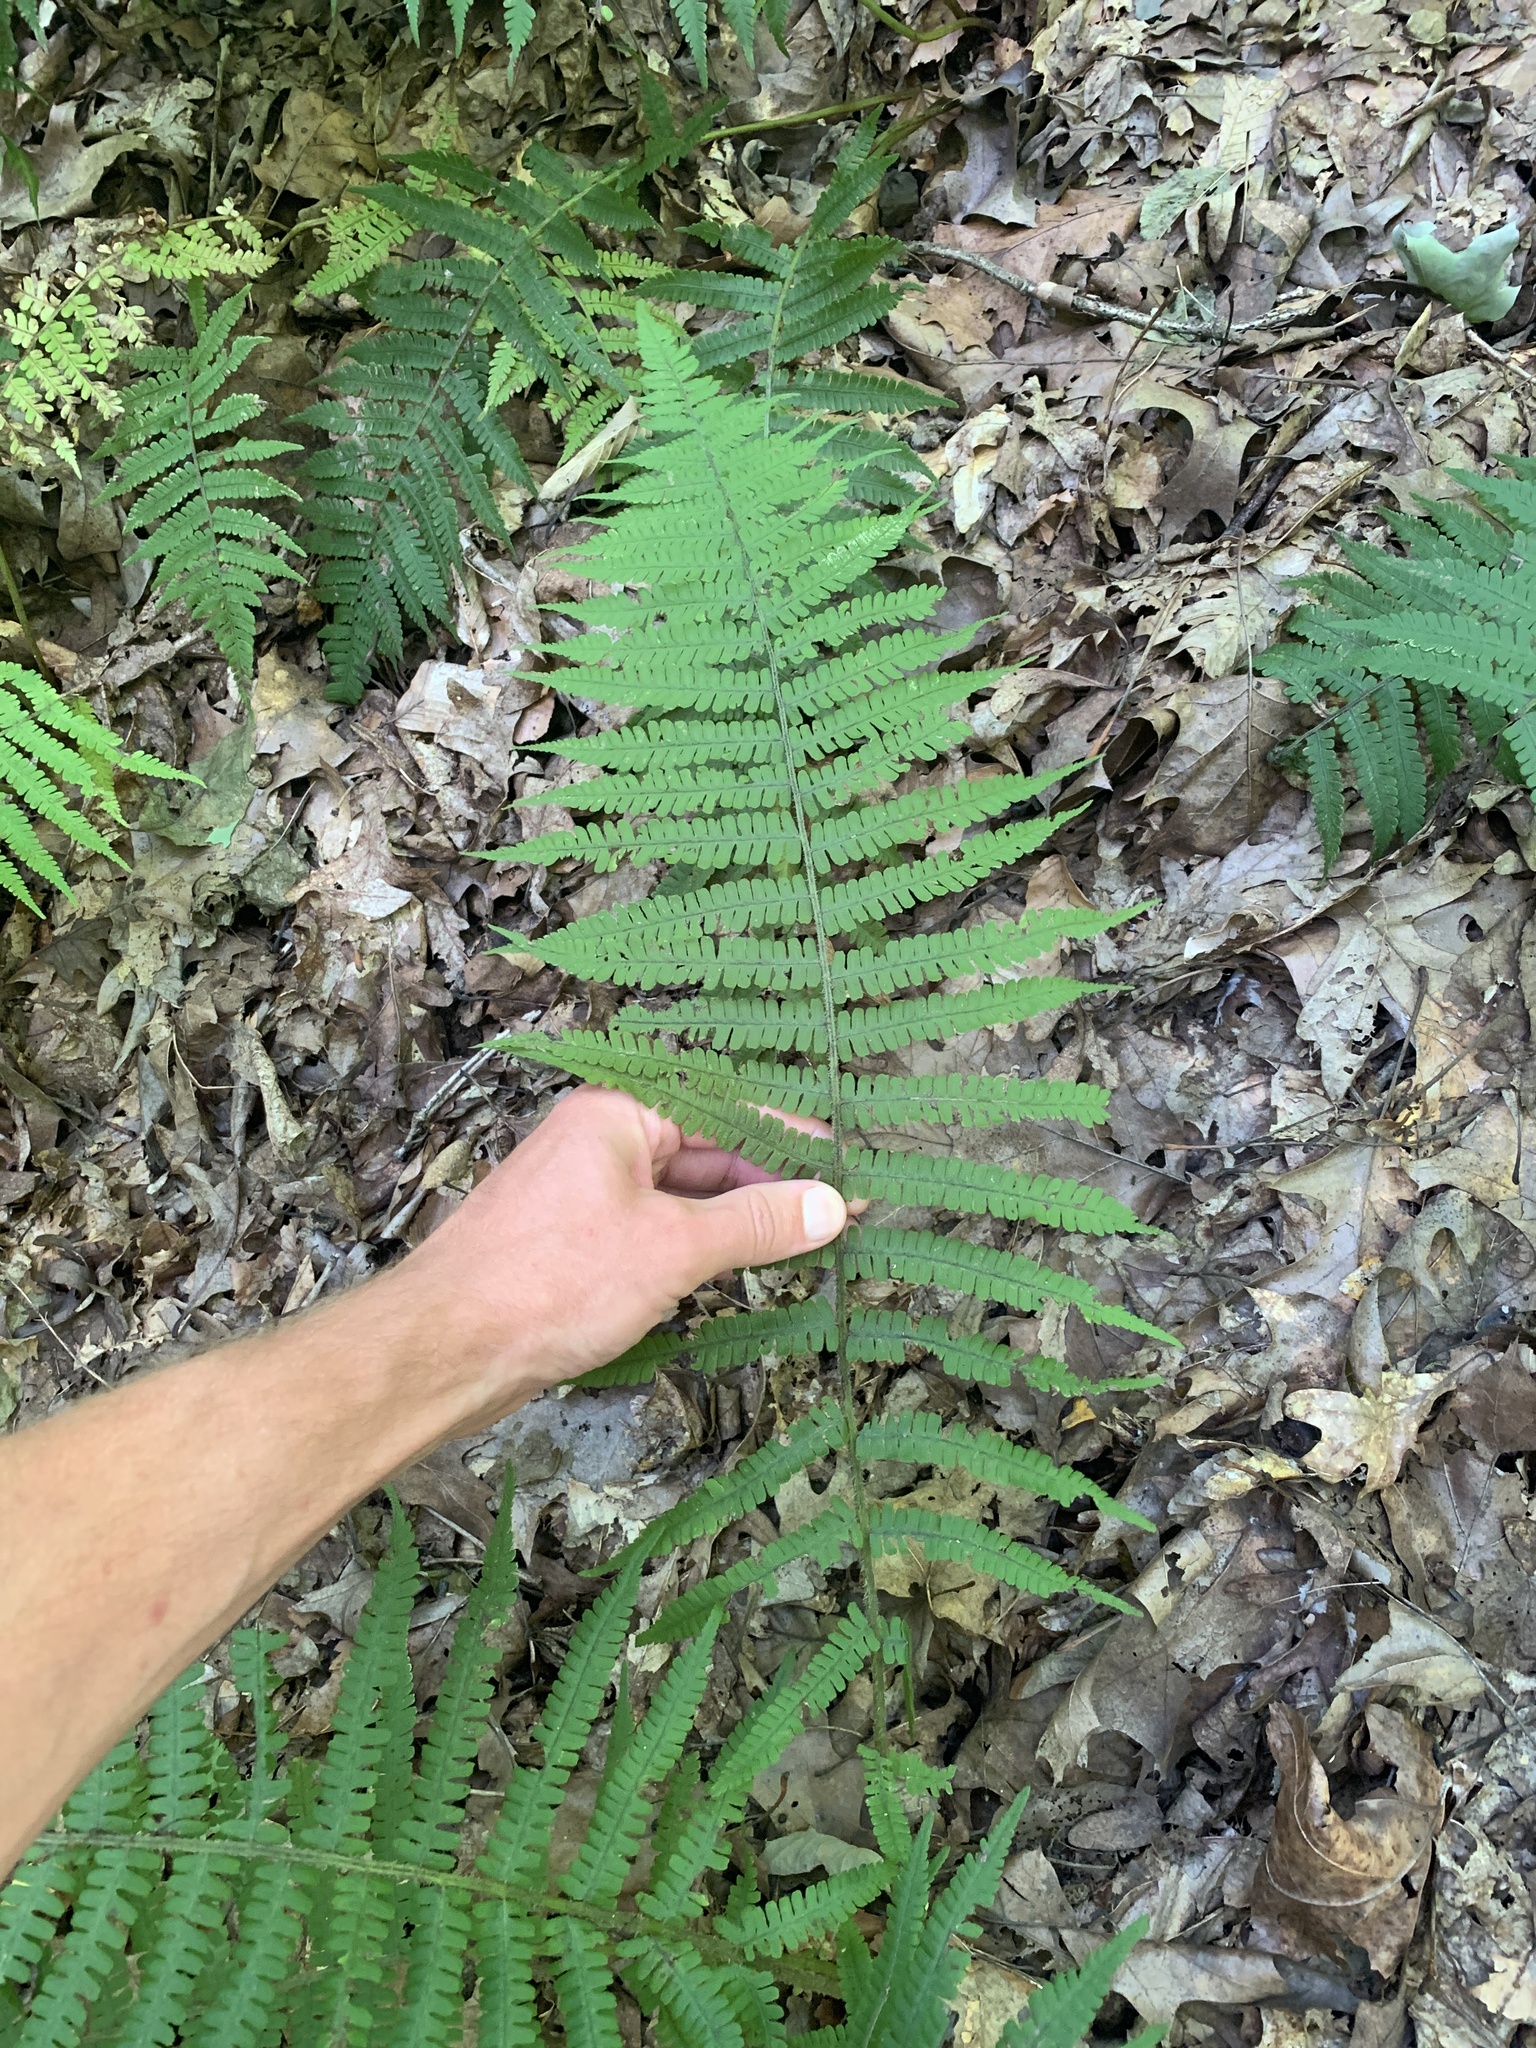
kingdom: Plantae
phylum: Tracheophyta
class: Polypodiopsida
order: Polypodiales
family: Athyriaceae
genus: Deparia
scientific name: Deparia acrostichoides
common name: Silver false spleenwort
